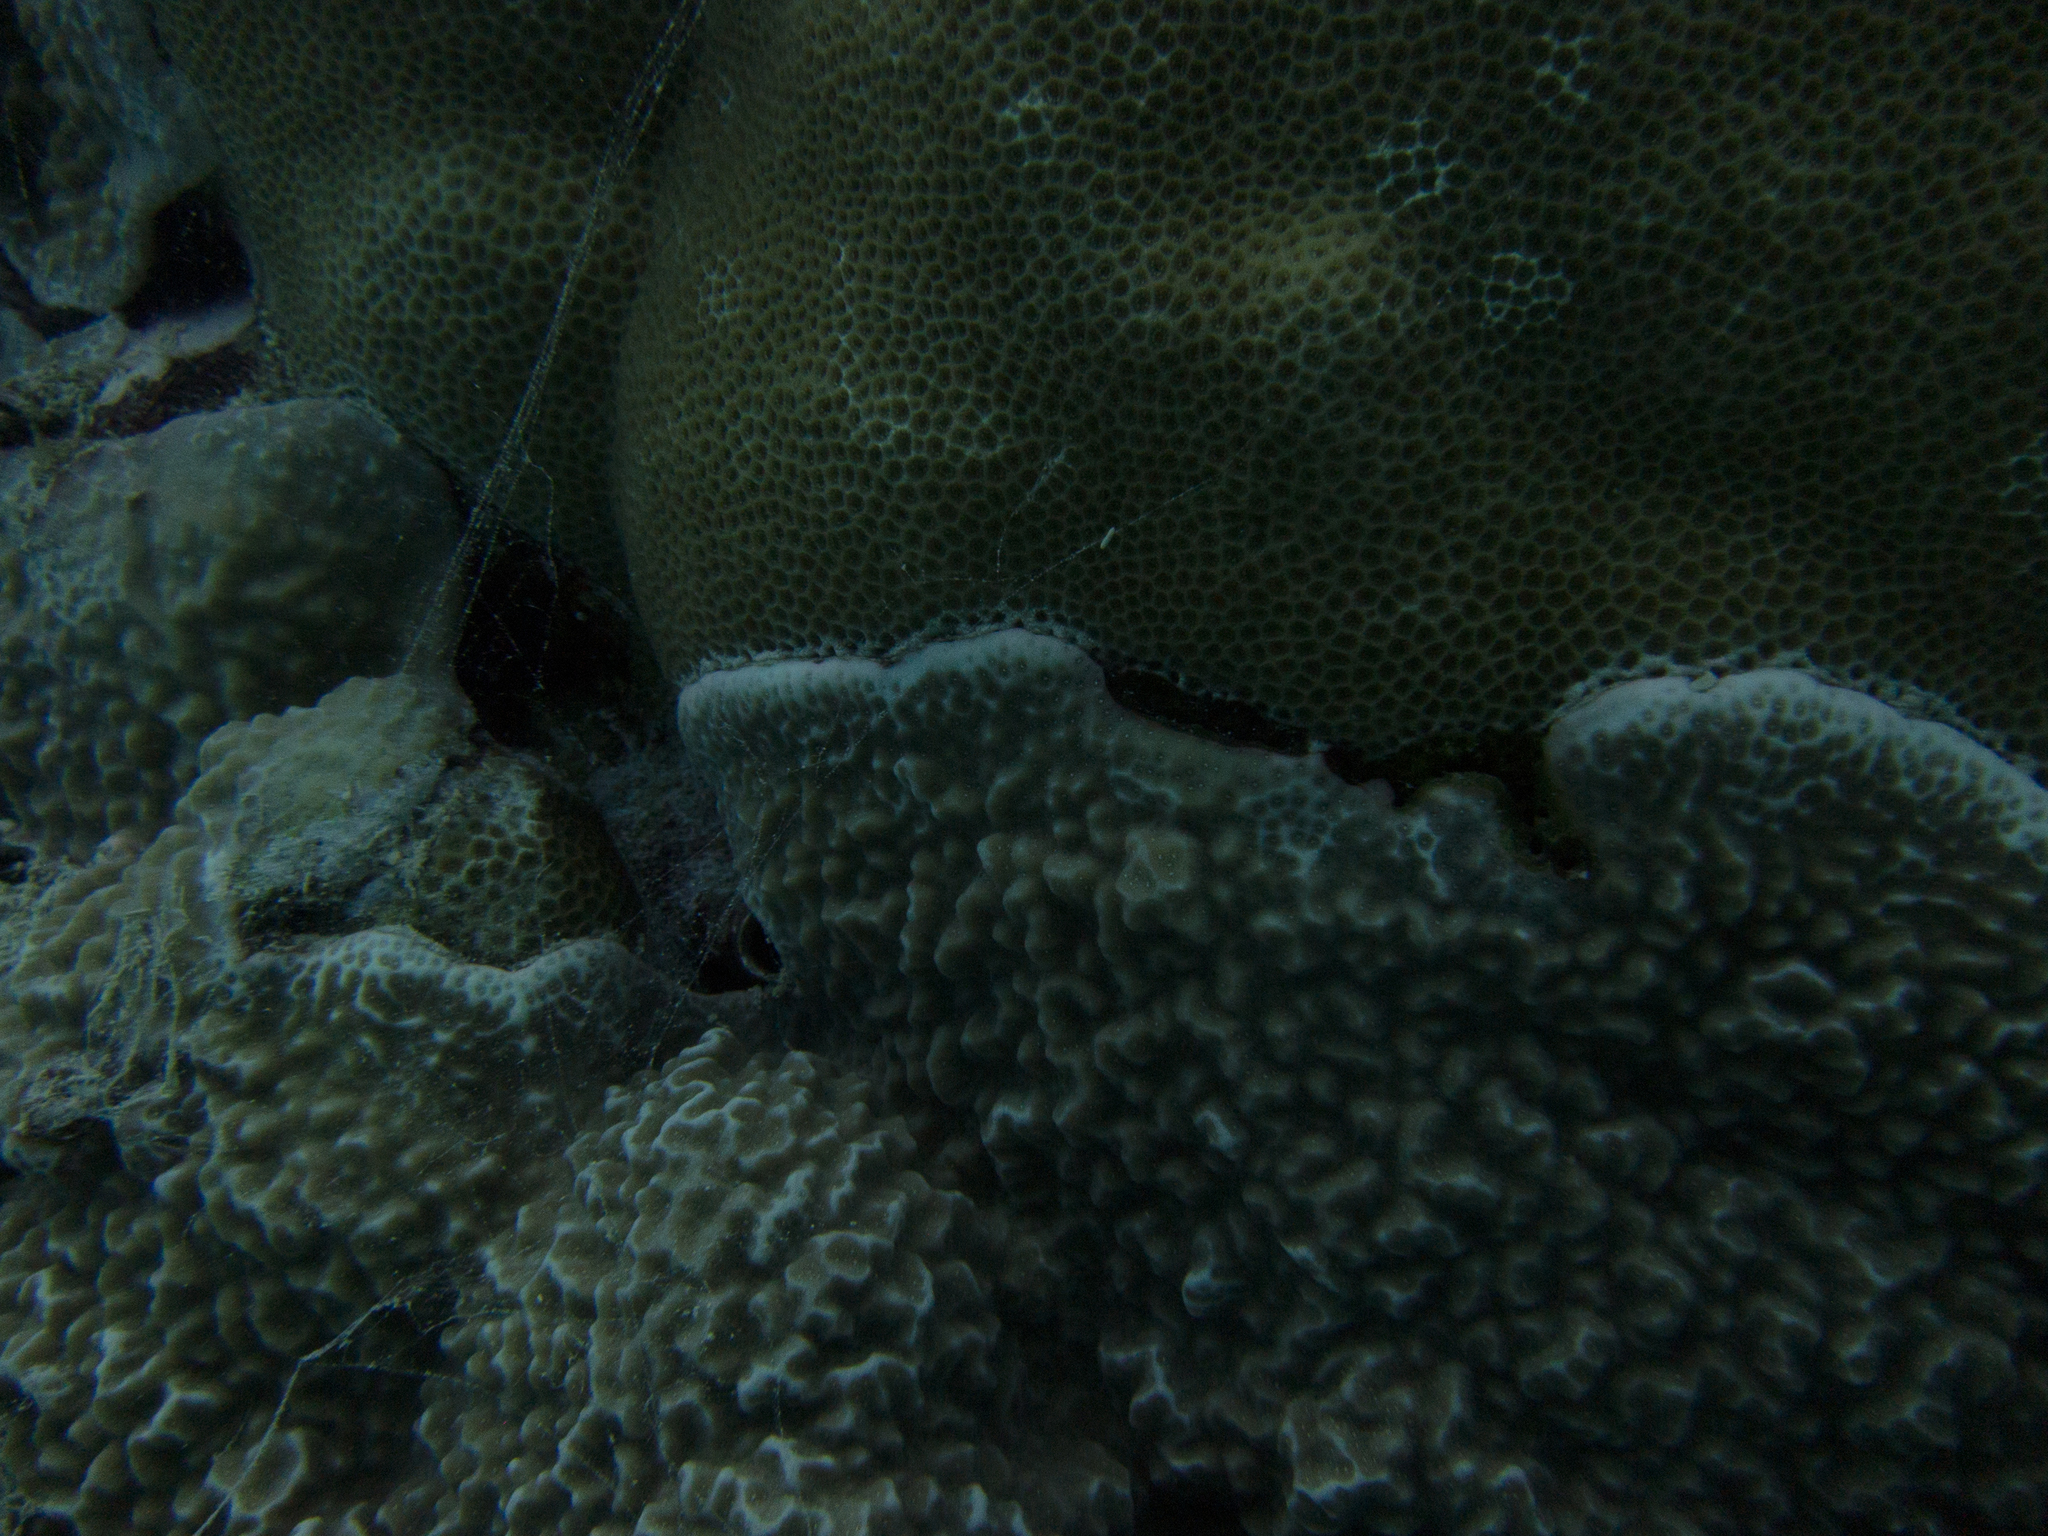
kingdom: Animalia
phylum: Cnidaria
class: Anthozoa
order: Scleractinia
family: Poritidae
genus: Porites
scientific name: Porites rus
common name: Hump coral
